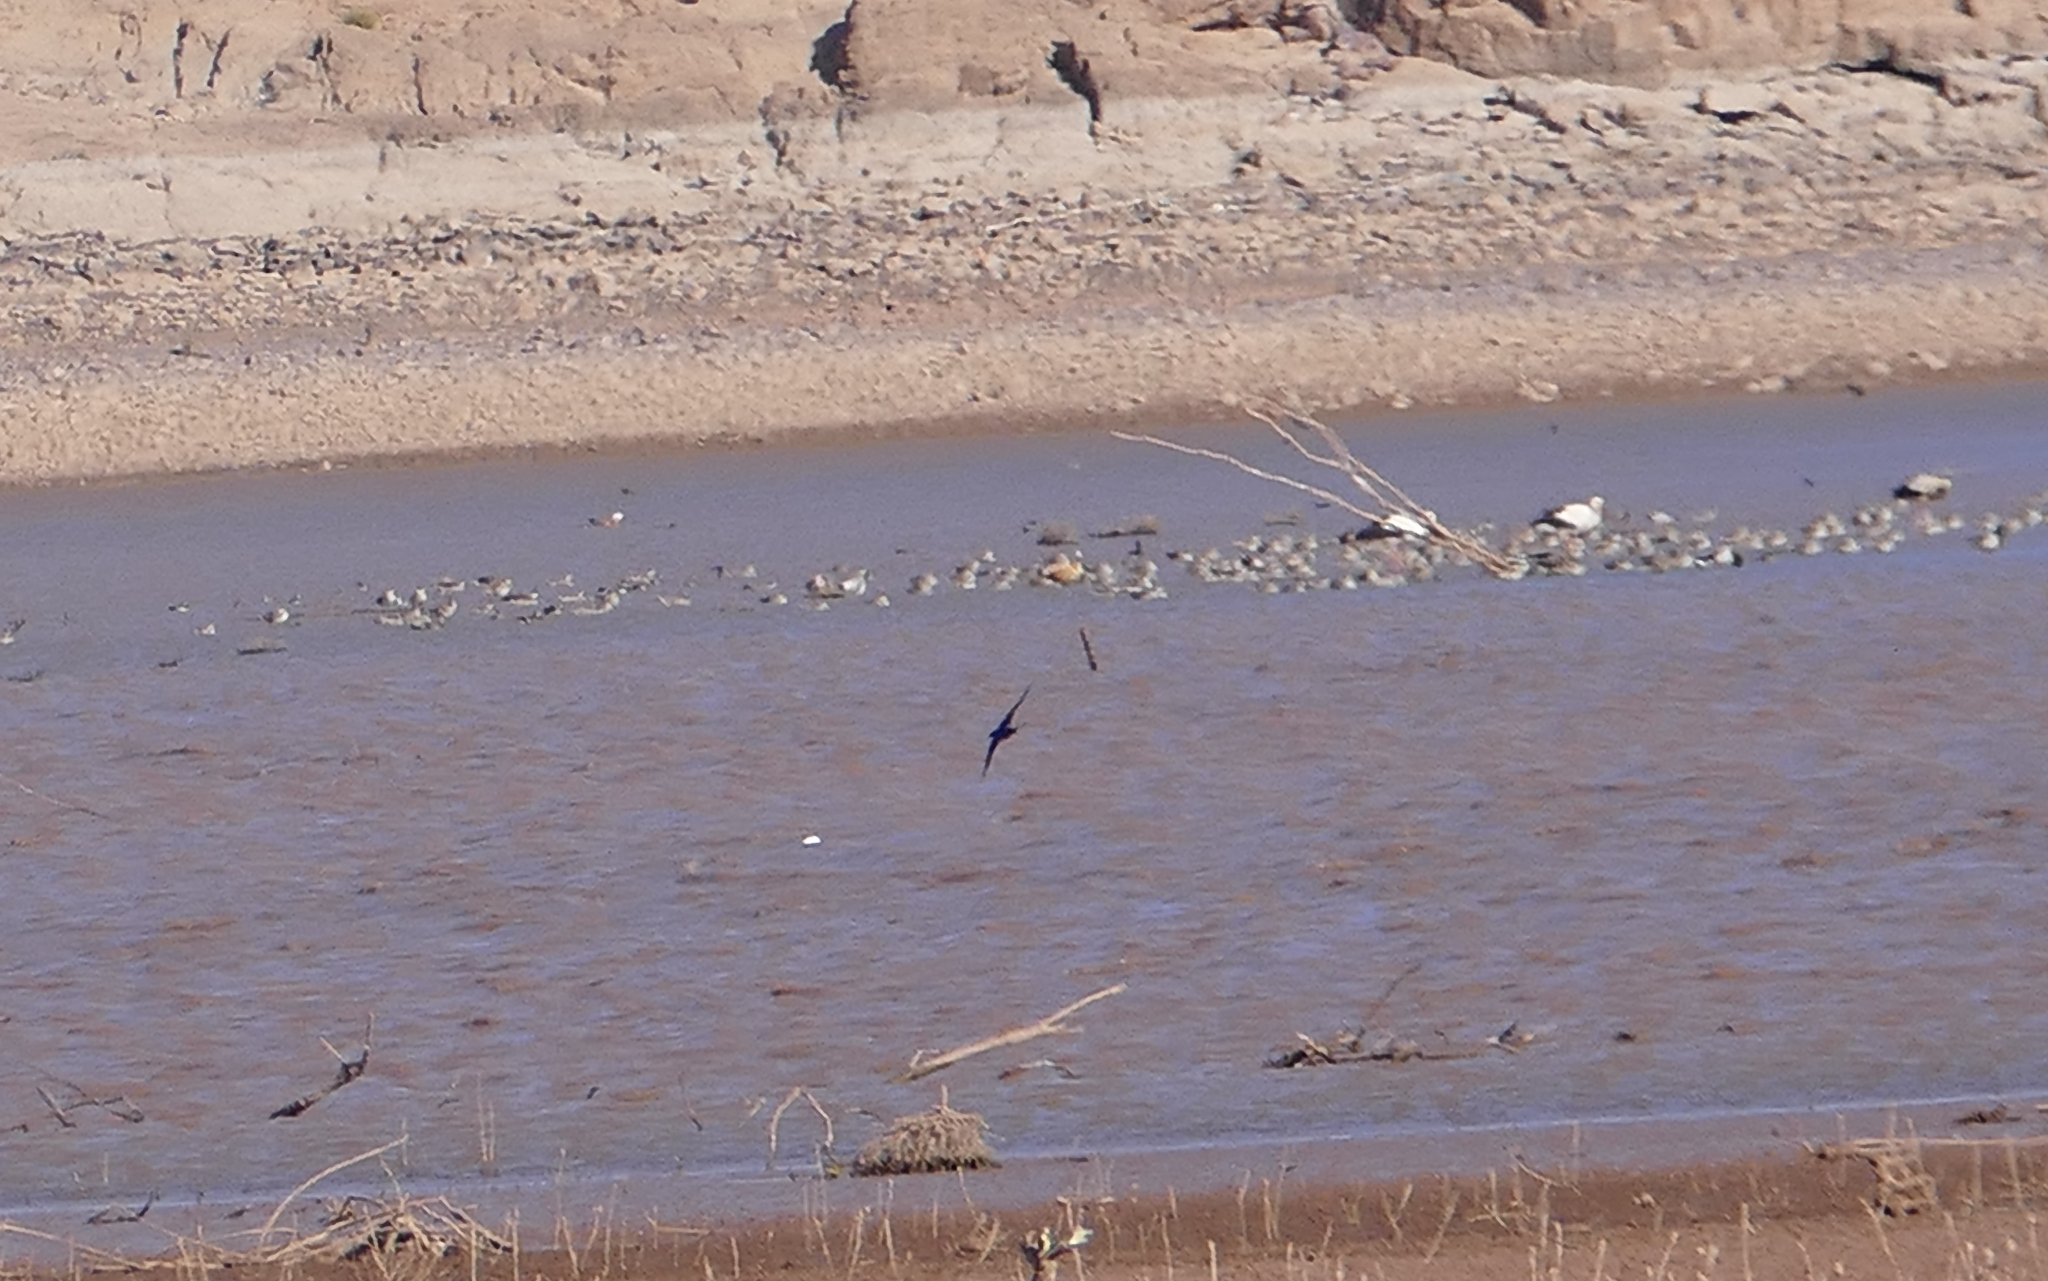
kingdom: Animalia
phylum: Chordata
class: Aves
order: Anseriformes
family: Anatidae
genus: Tadorna
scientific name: Tadorna ferruginea
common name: Ruddy shelduck
